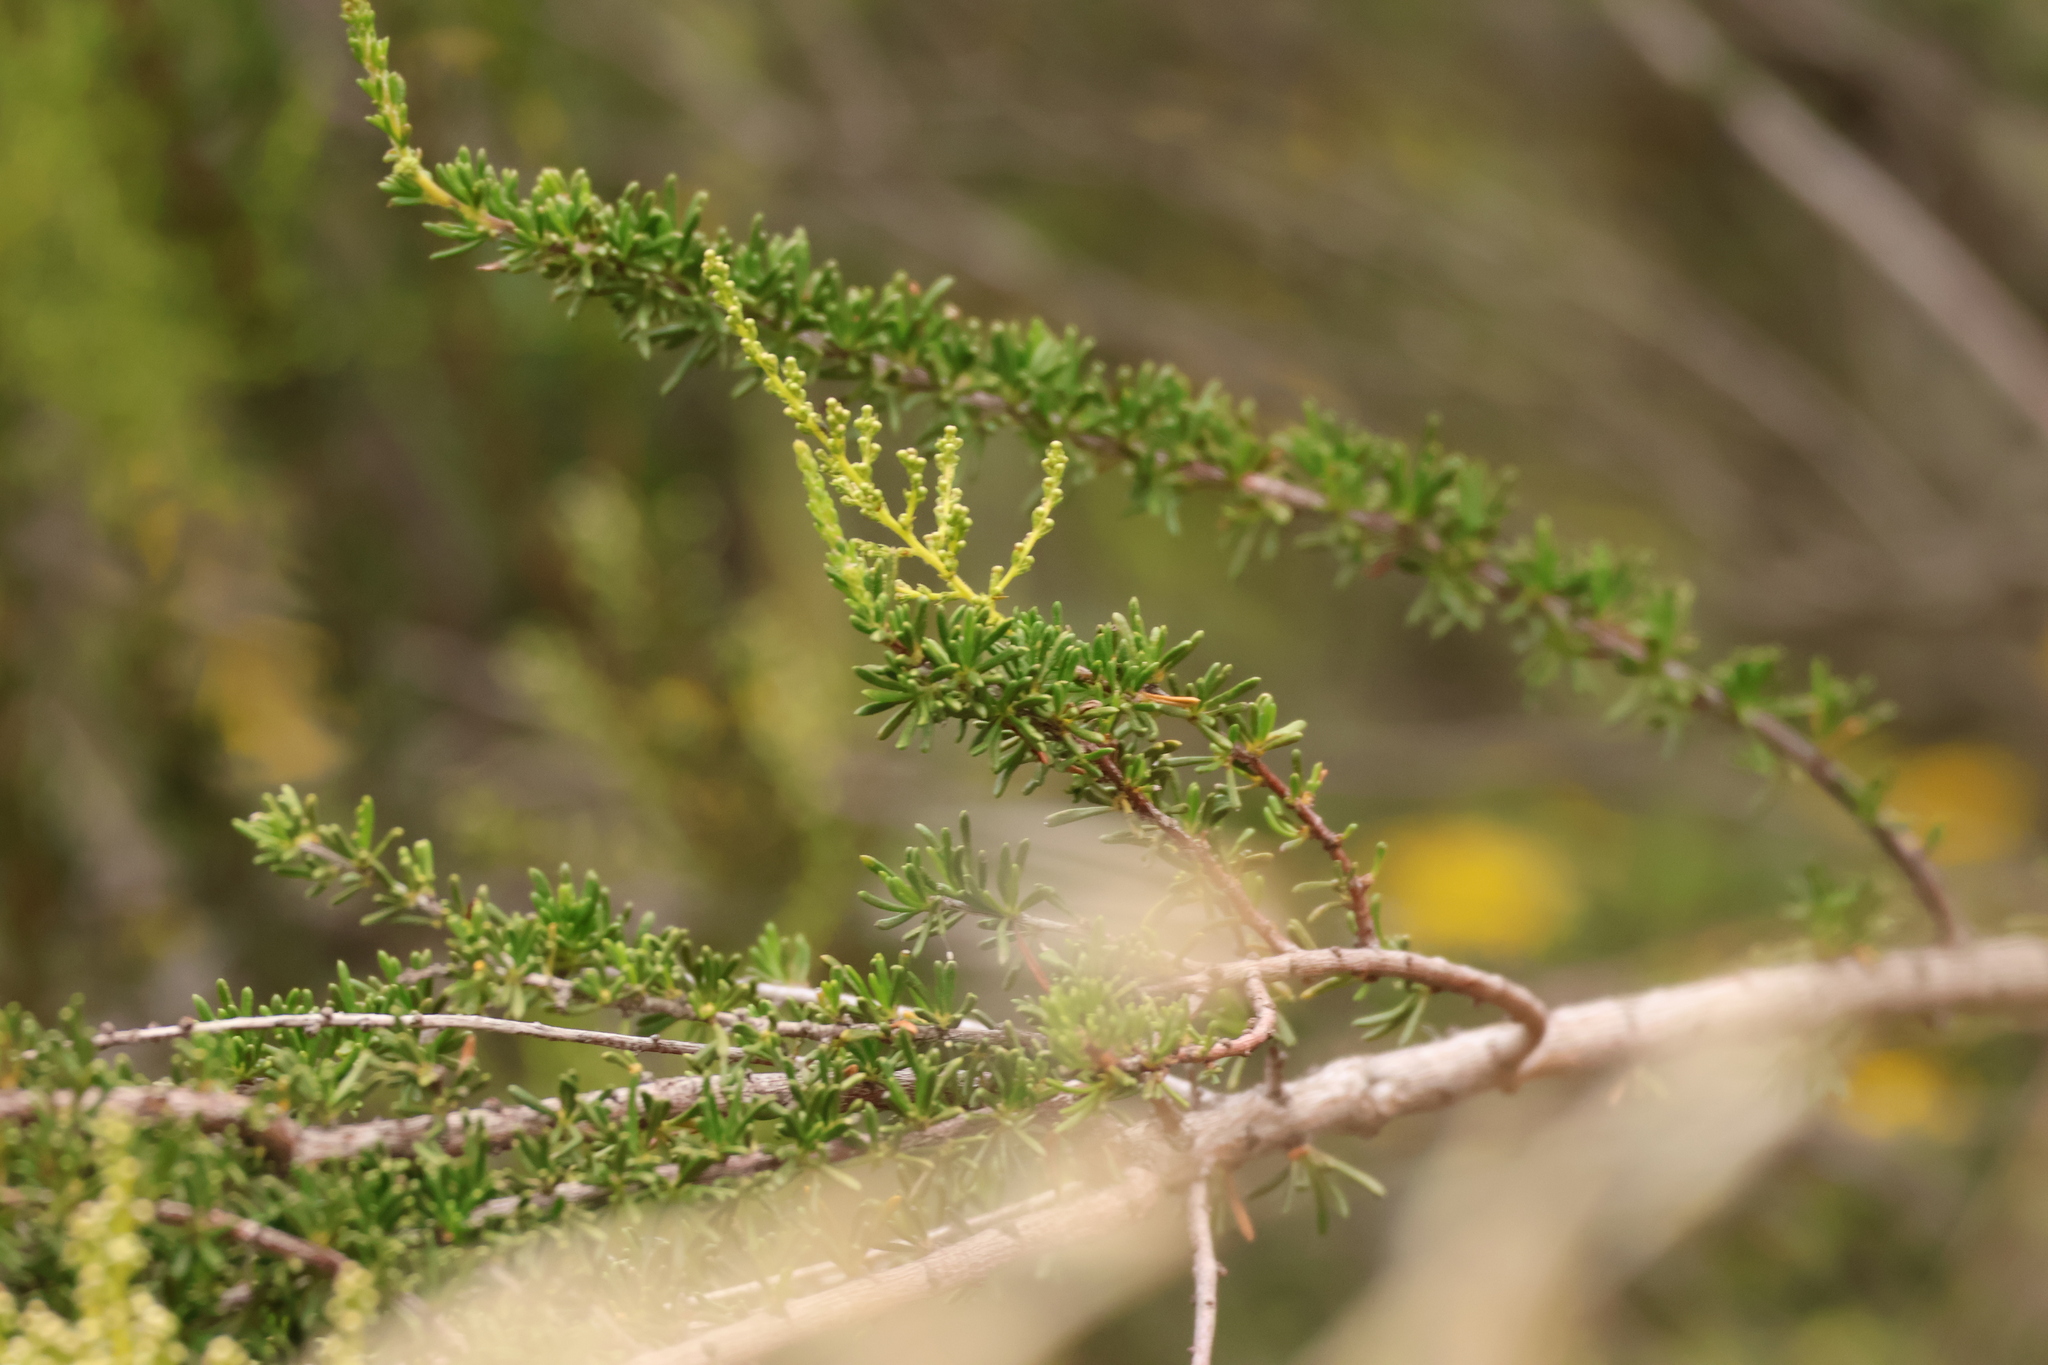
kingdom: Plantae
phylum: Tracheophyta
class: Magnoliopsida
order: Rosales
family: Rosaceae
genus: Adenostoma
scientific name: Adenostoma fasciculatum
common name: Chamise
